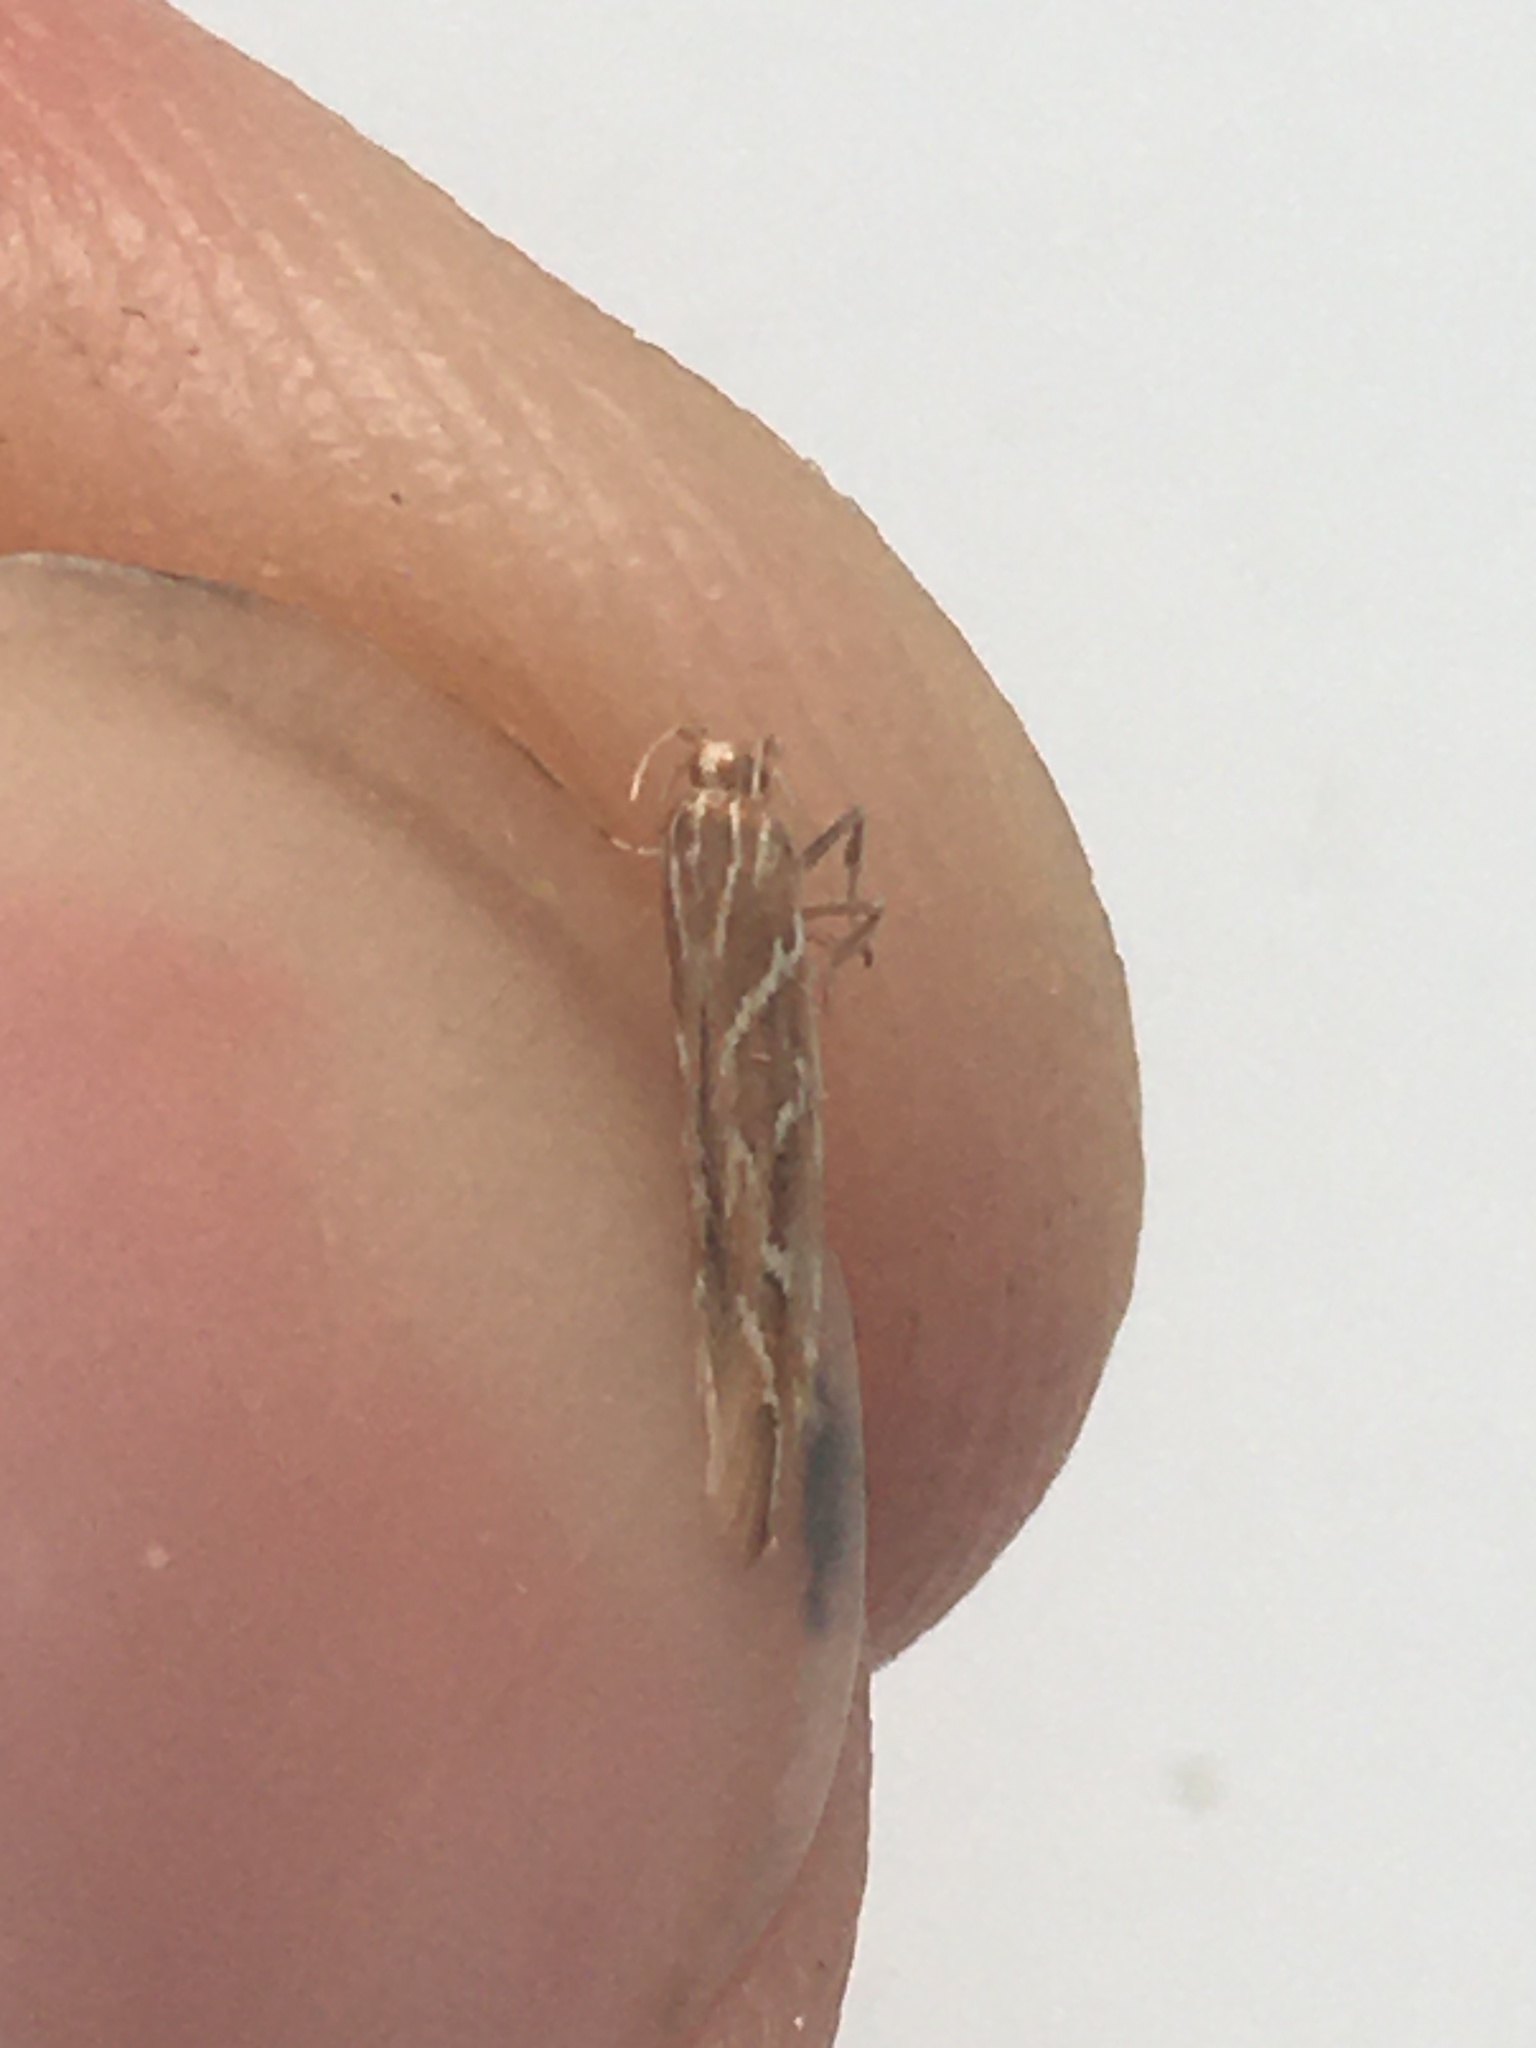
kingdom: Animalia
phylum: Arthropoda
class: Insecta
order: Lepidoptera
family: Cosmopterigidae
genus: Pyroderces
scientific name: Pyroderces argyrogrammos
